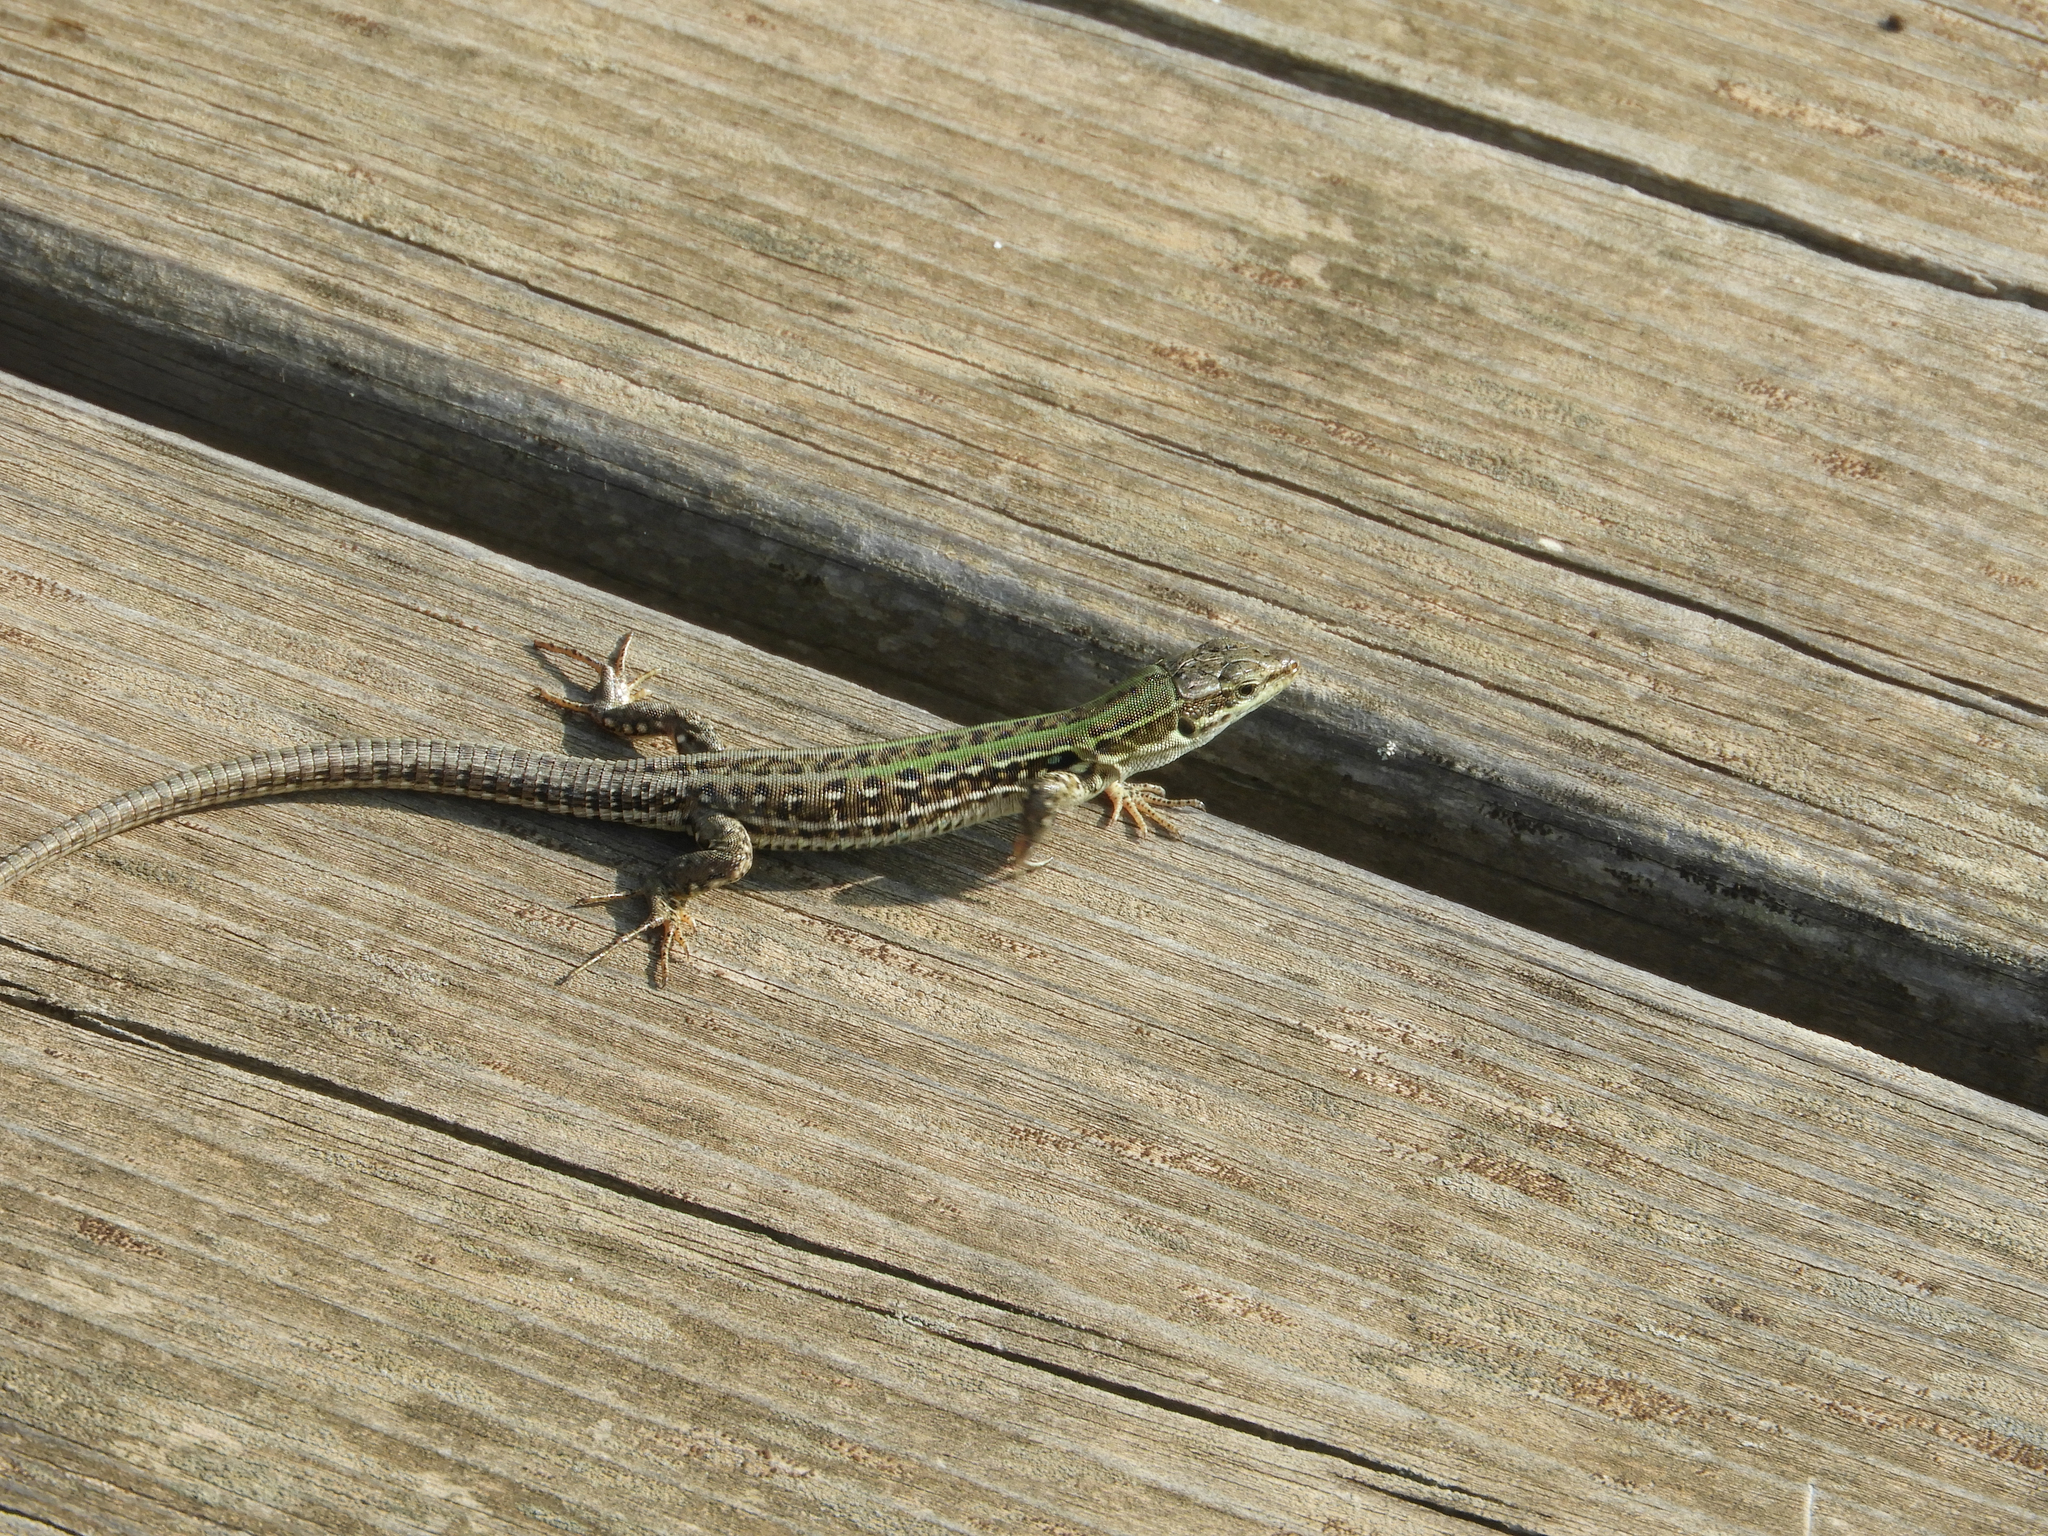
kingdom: Animalia
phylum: Chordata
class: Squamata
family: Lacertidae
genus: Podarcis
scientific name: Podarcis siculus
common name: Italian wall lizard
